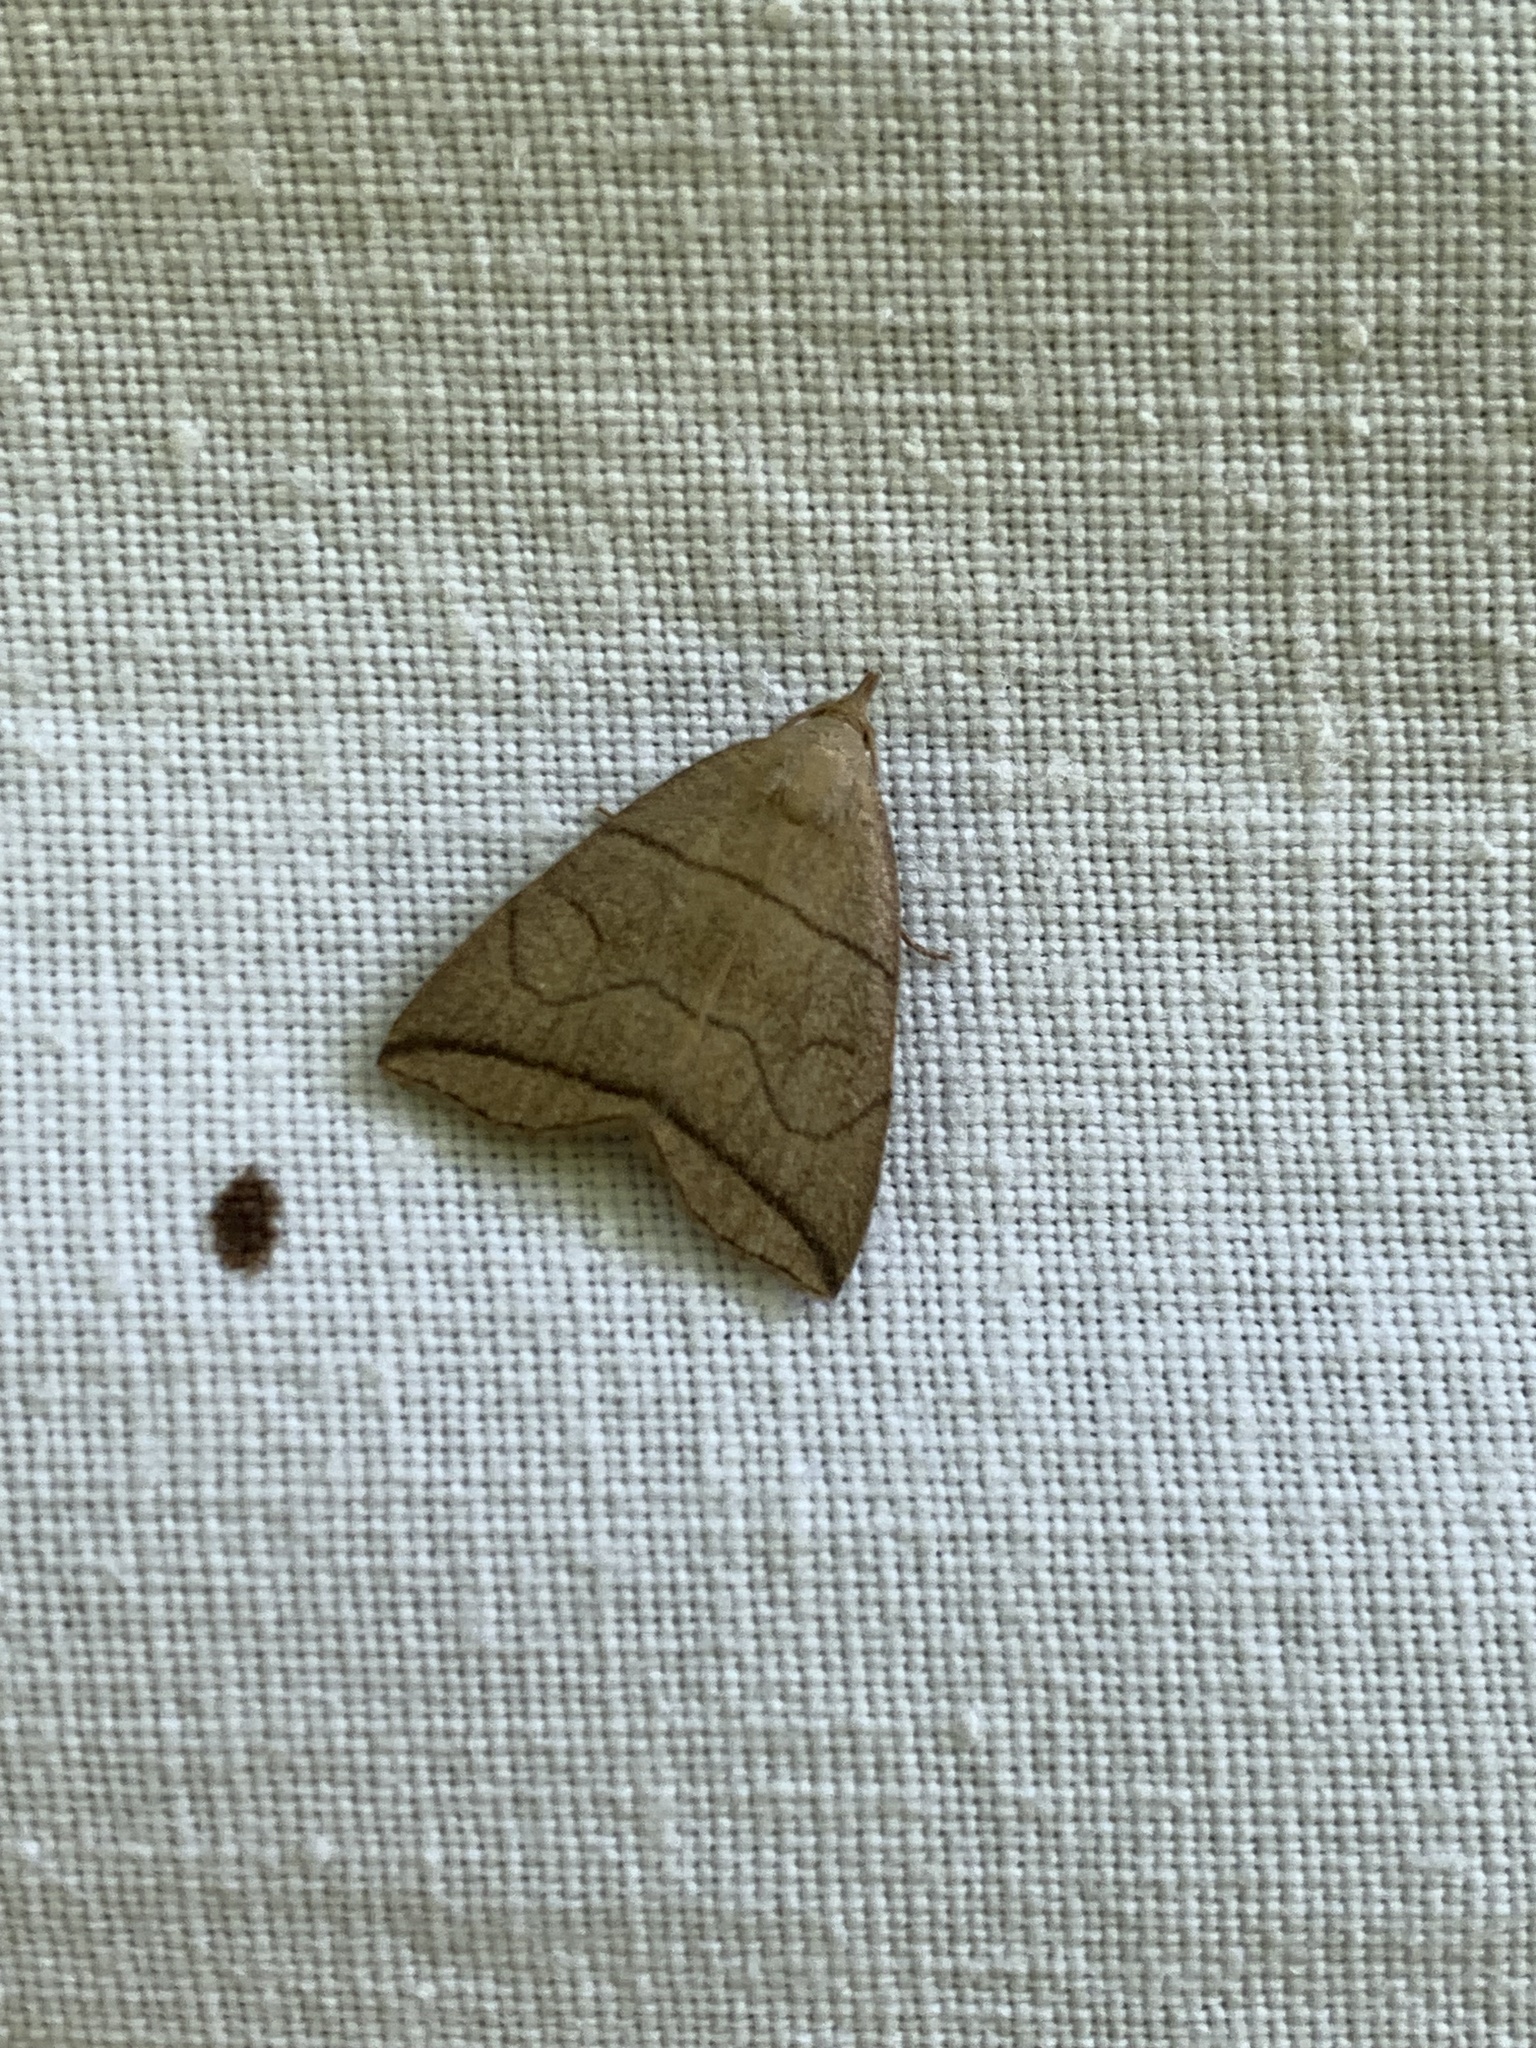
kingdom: Animalia
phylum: Arthropoda
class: Insecta
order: Lepidoptera
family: Erebidae
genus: Herminia
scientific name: Herminia grisealis
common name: Small fan-foot
